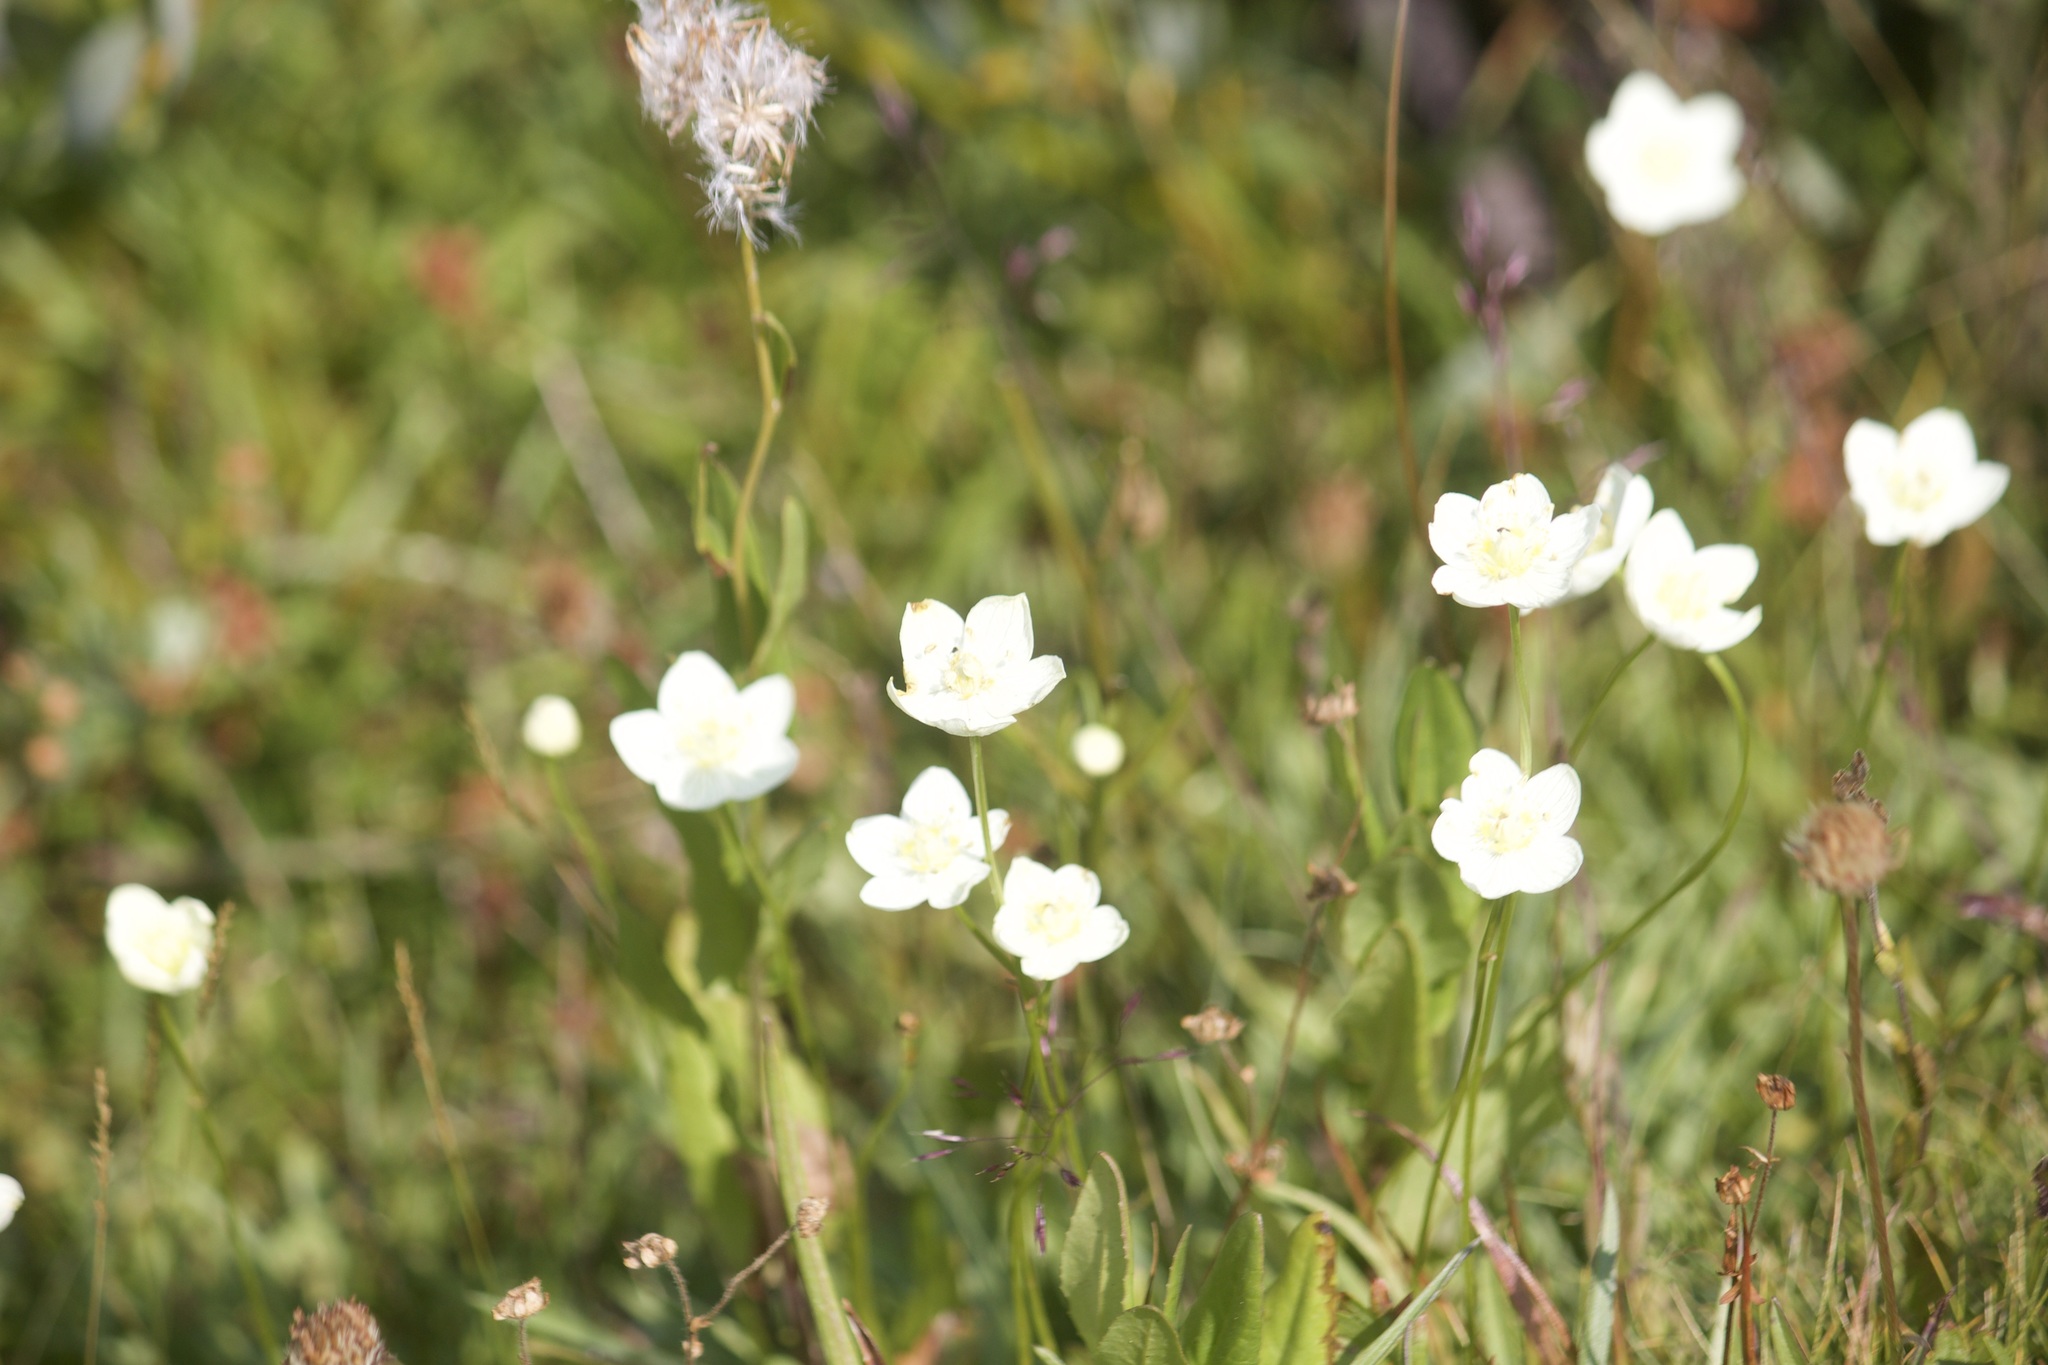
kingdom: Plantae
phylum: Tracheophyta
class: Magnoliopsida
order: Celastrales
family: Parnassiaceae
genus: Parnassia
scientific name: Parnassia palustris
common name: Grass-of-parnassus
